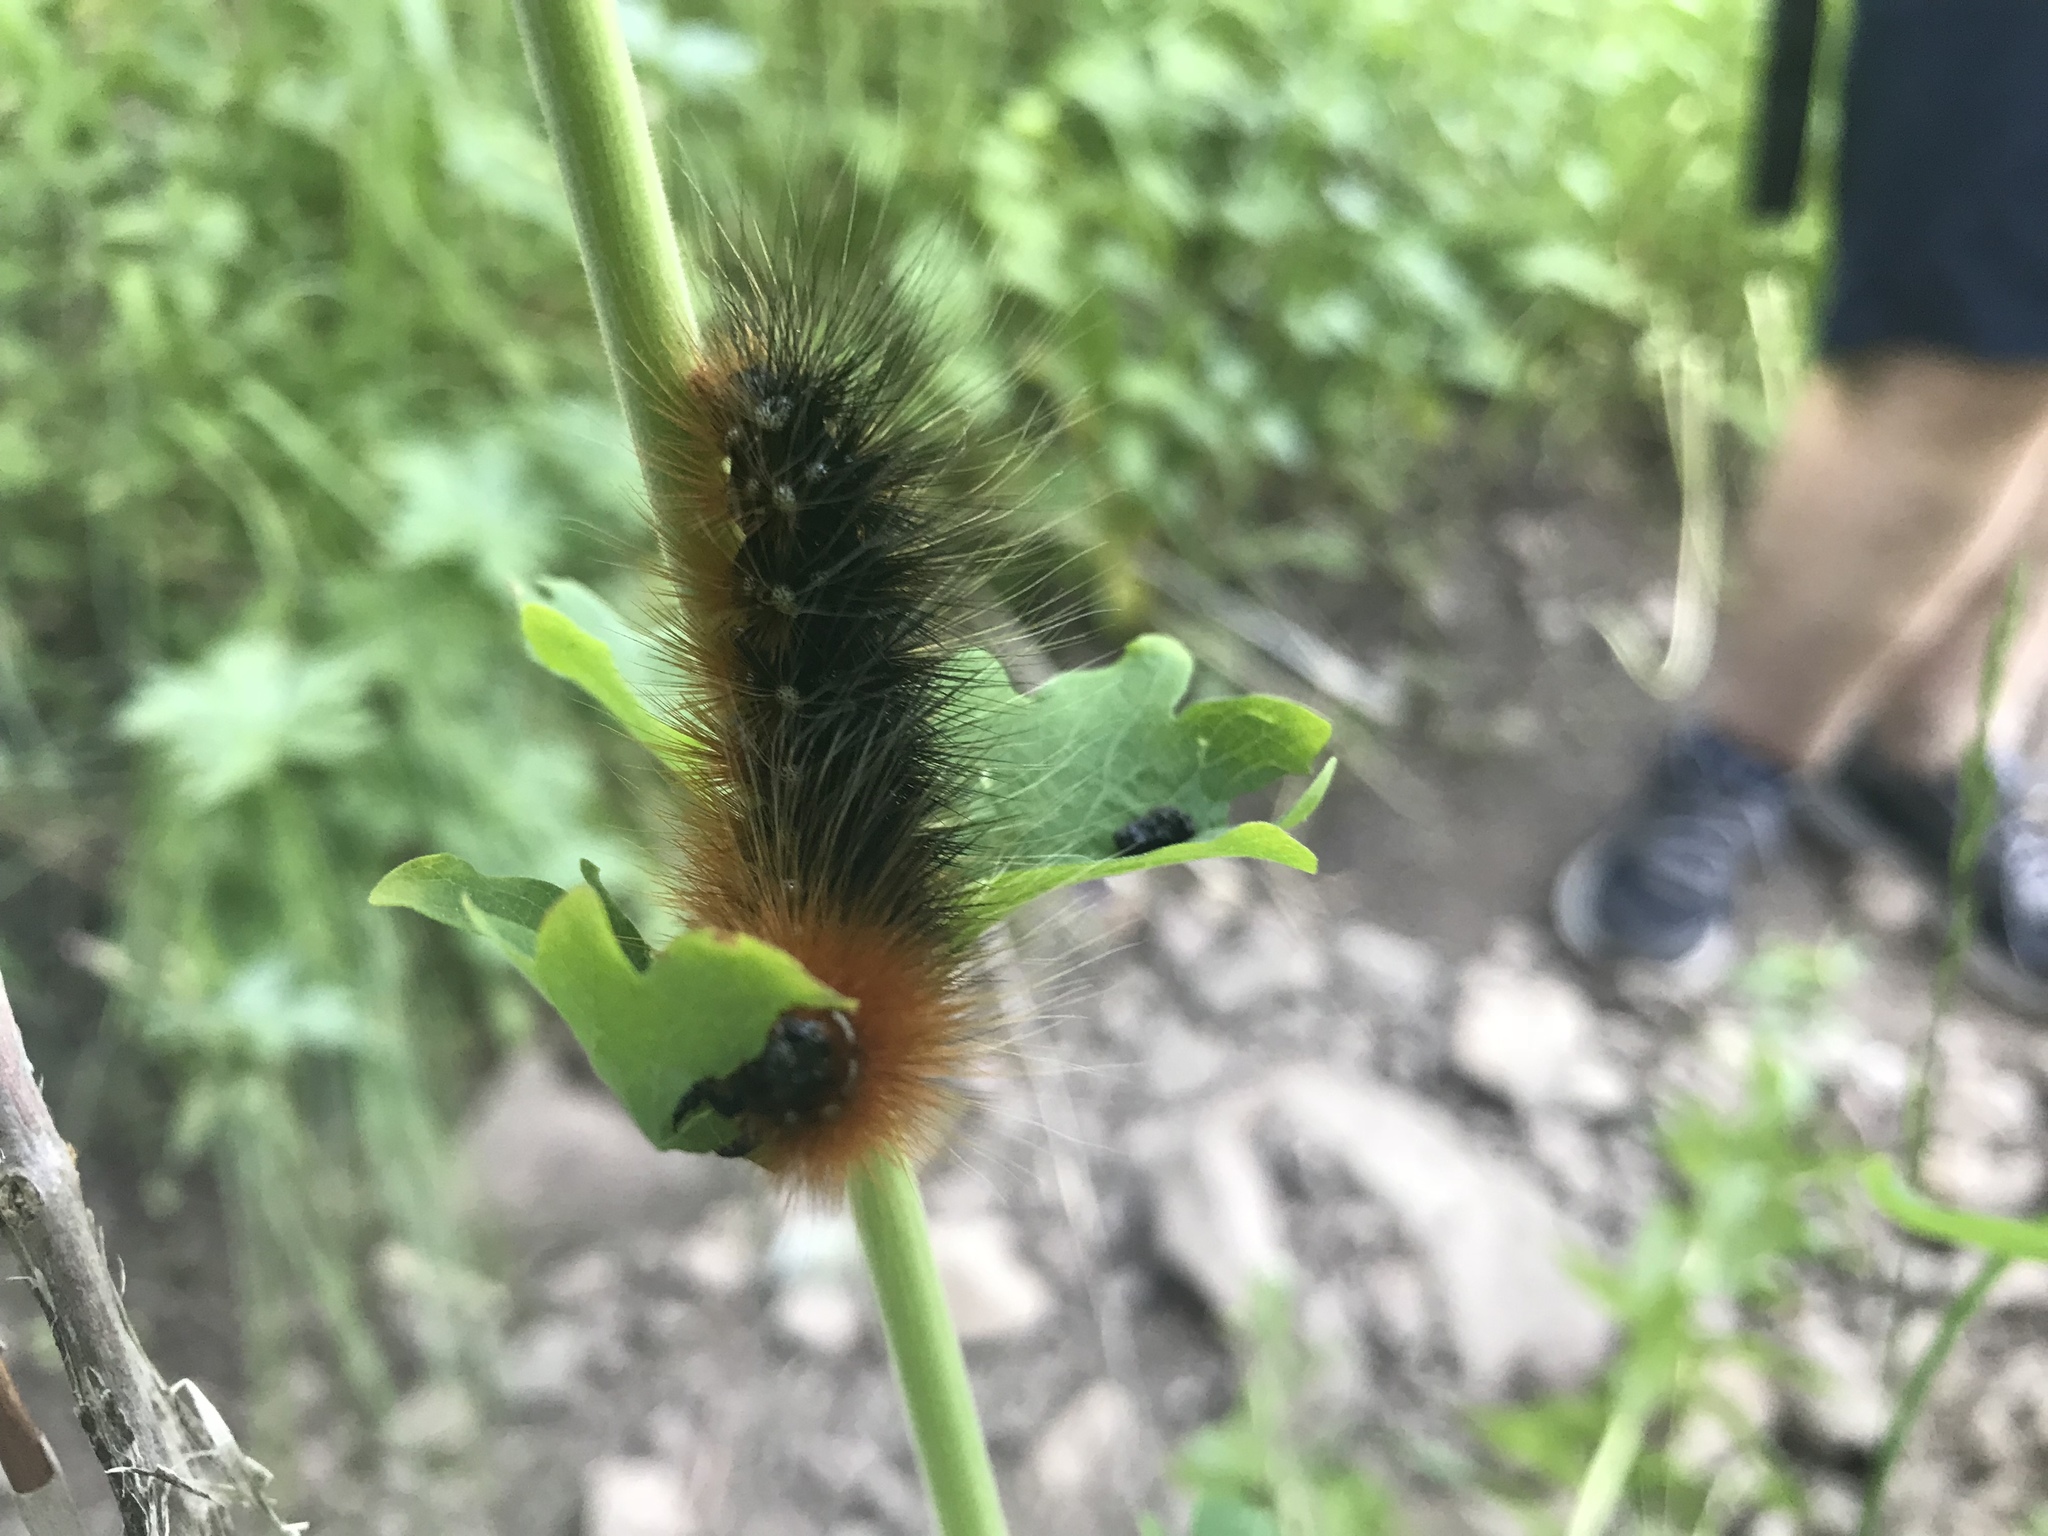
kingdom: Animalia
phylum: Arthropoda
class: Insecta
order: Lepidoptera
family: Erebidae
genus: Arctia
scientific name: Arctia caja
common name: Garden tiger
